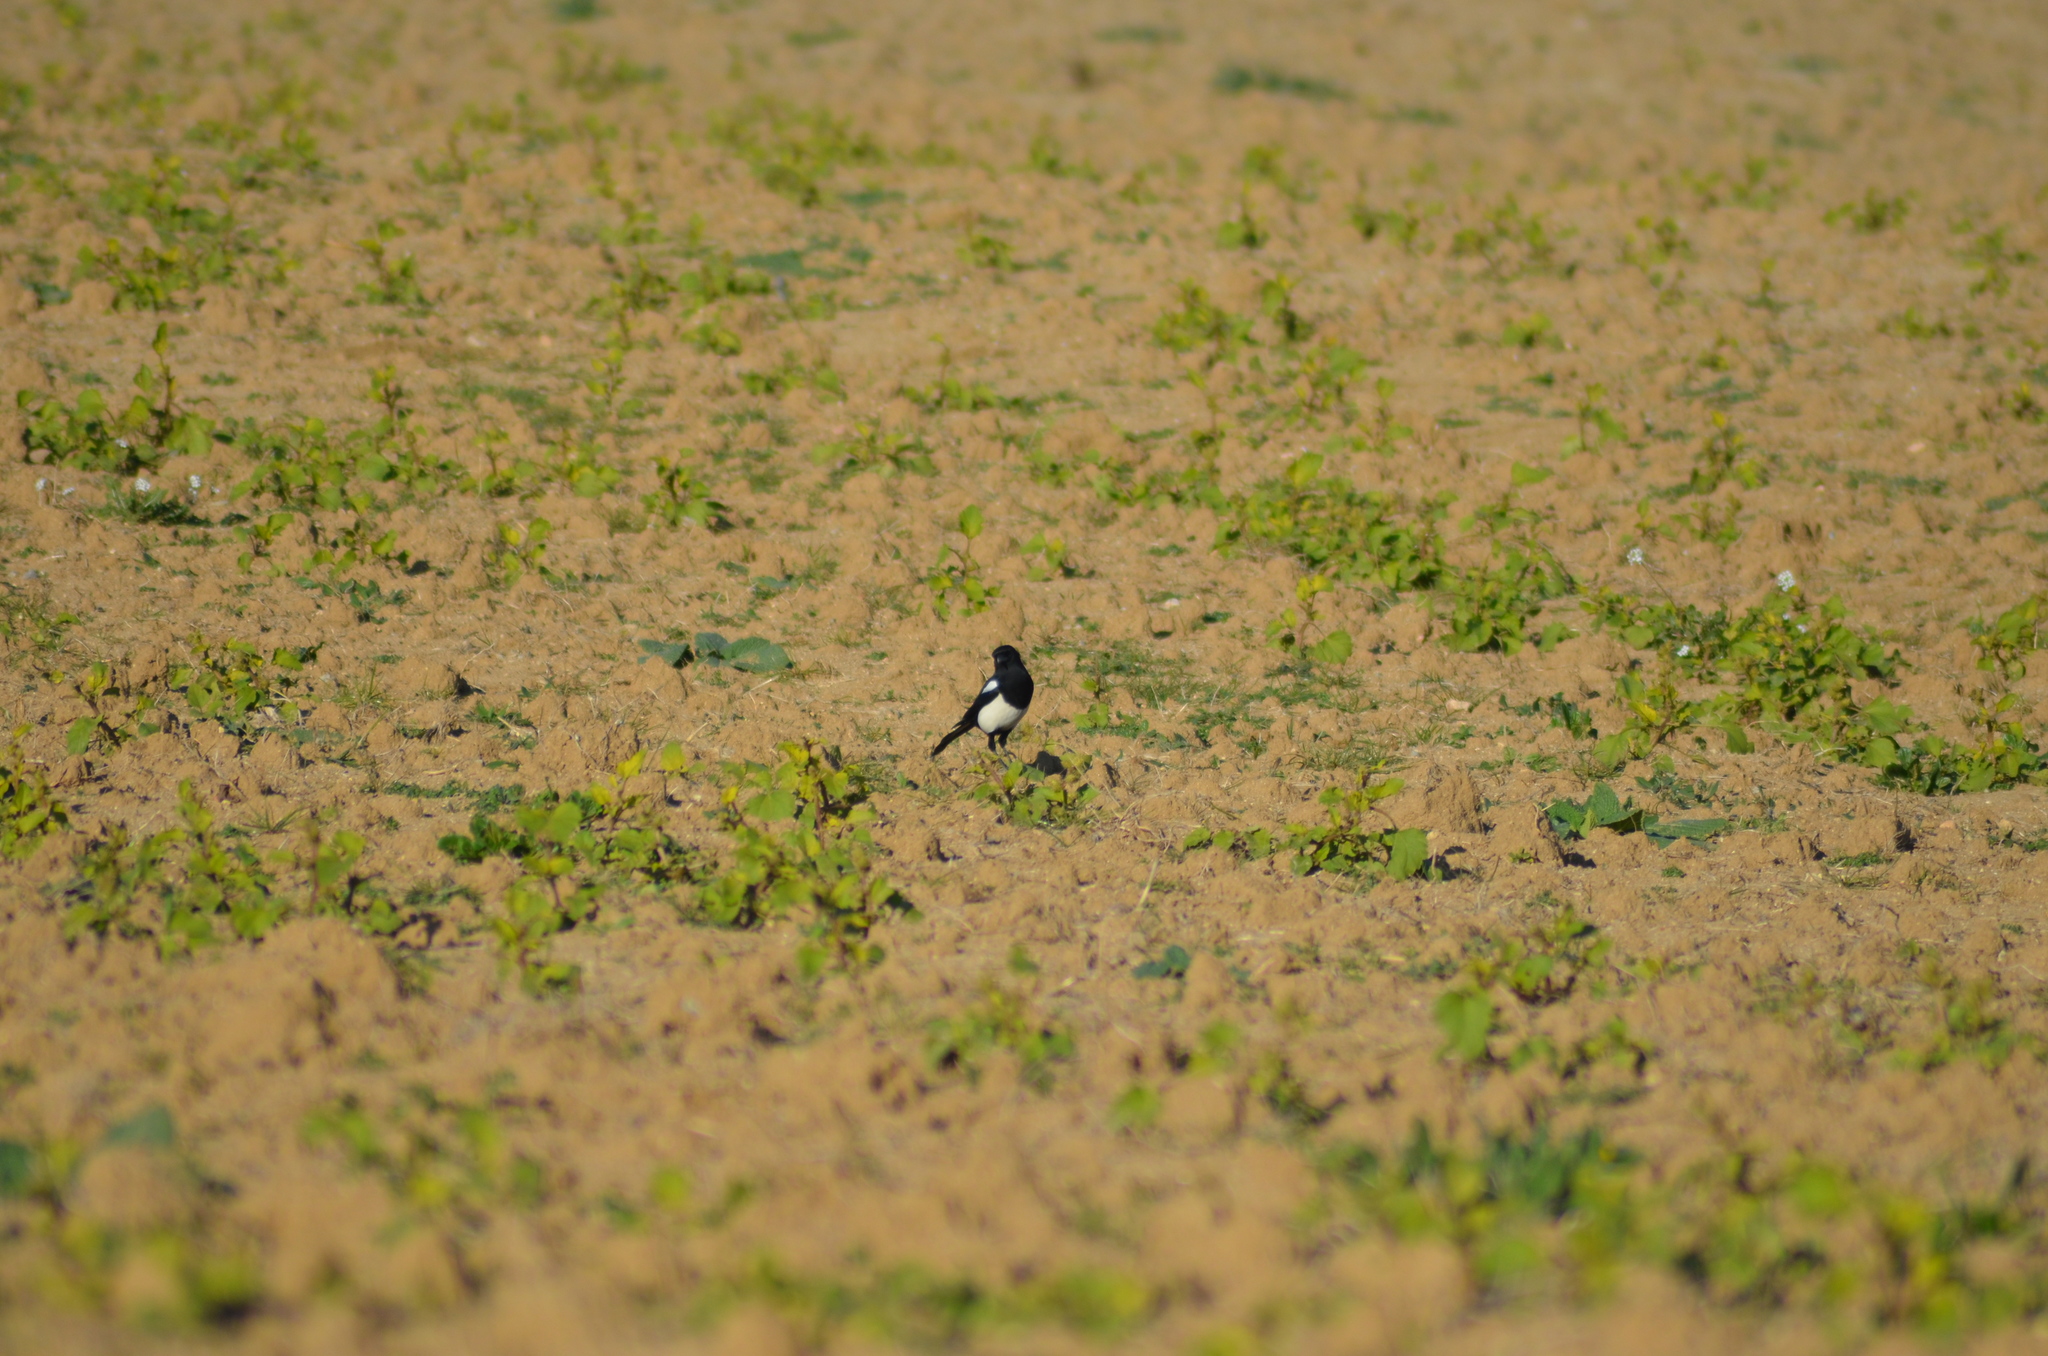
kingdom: Animalia
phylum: Chordata
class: Aves
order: Passeriformes
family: Corvidae
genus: Pica
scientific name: Pica pica
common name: Eurasian magpie
